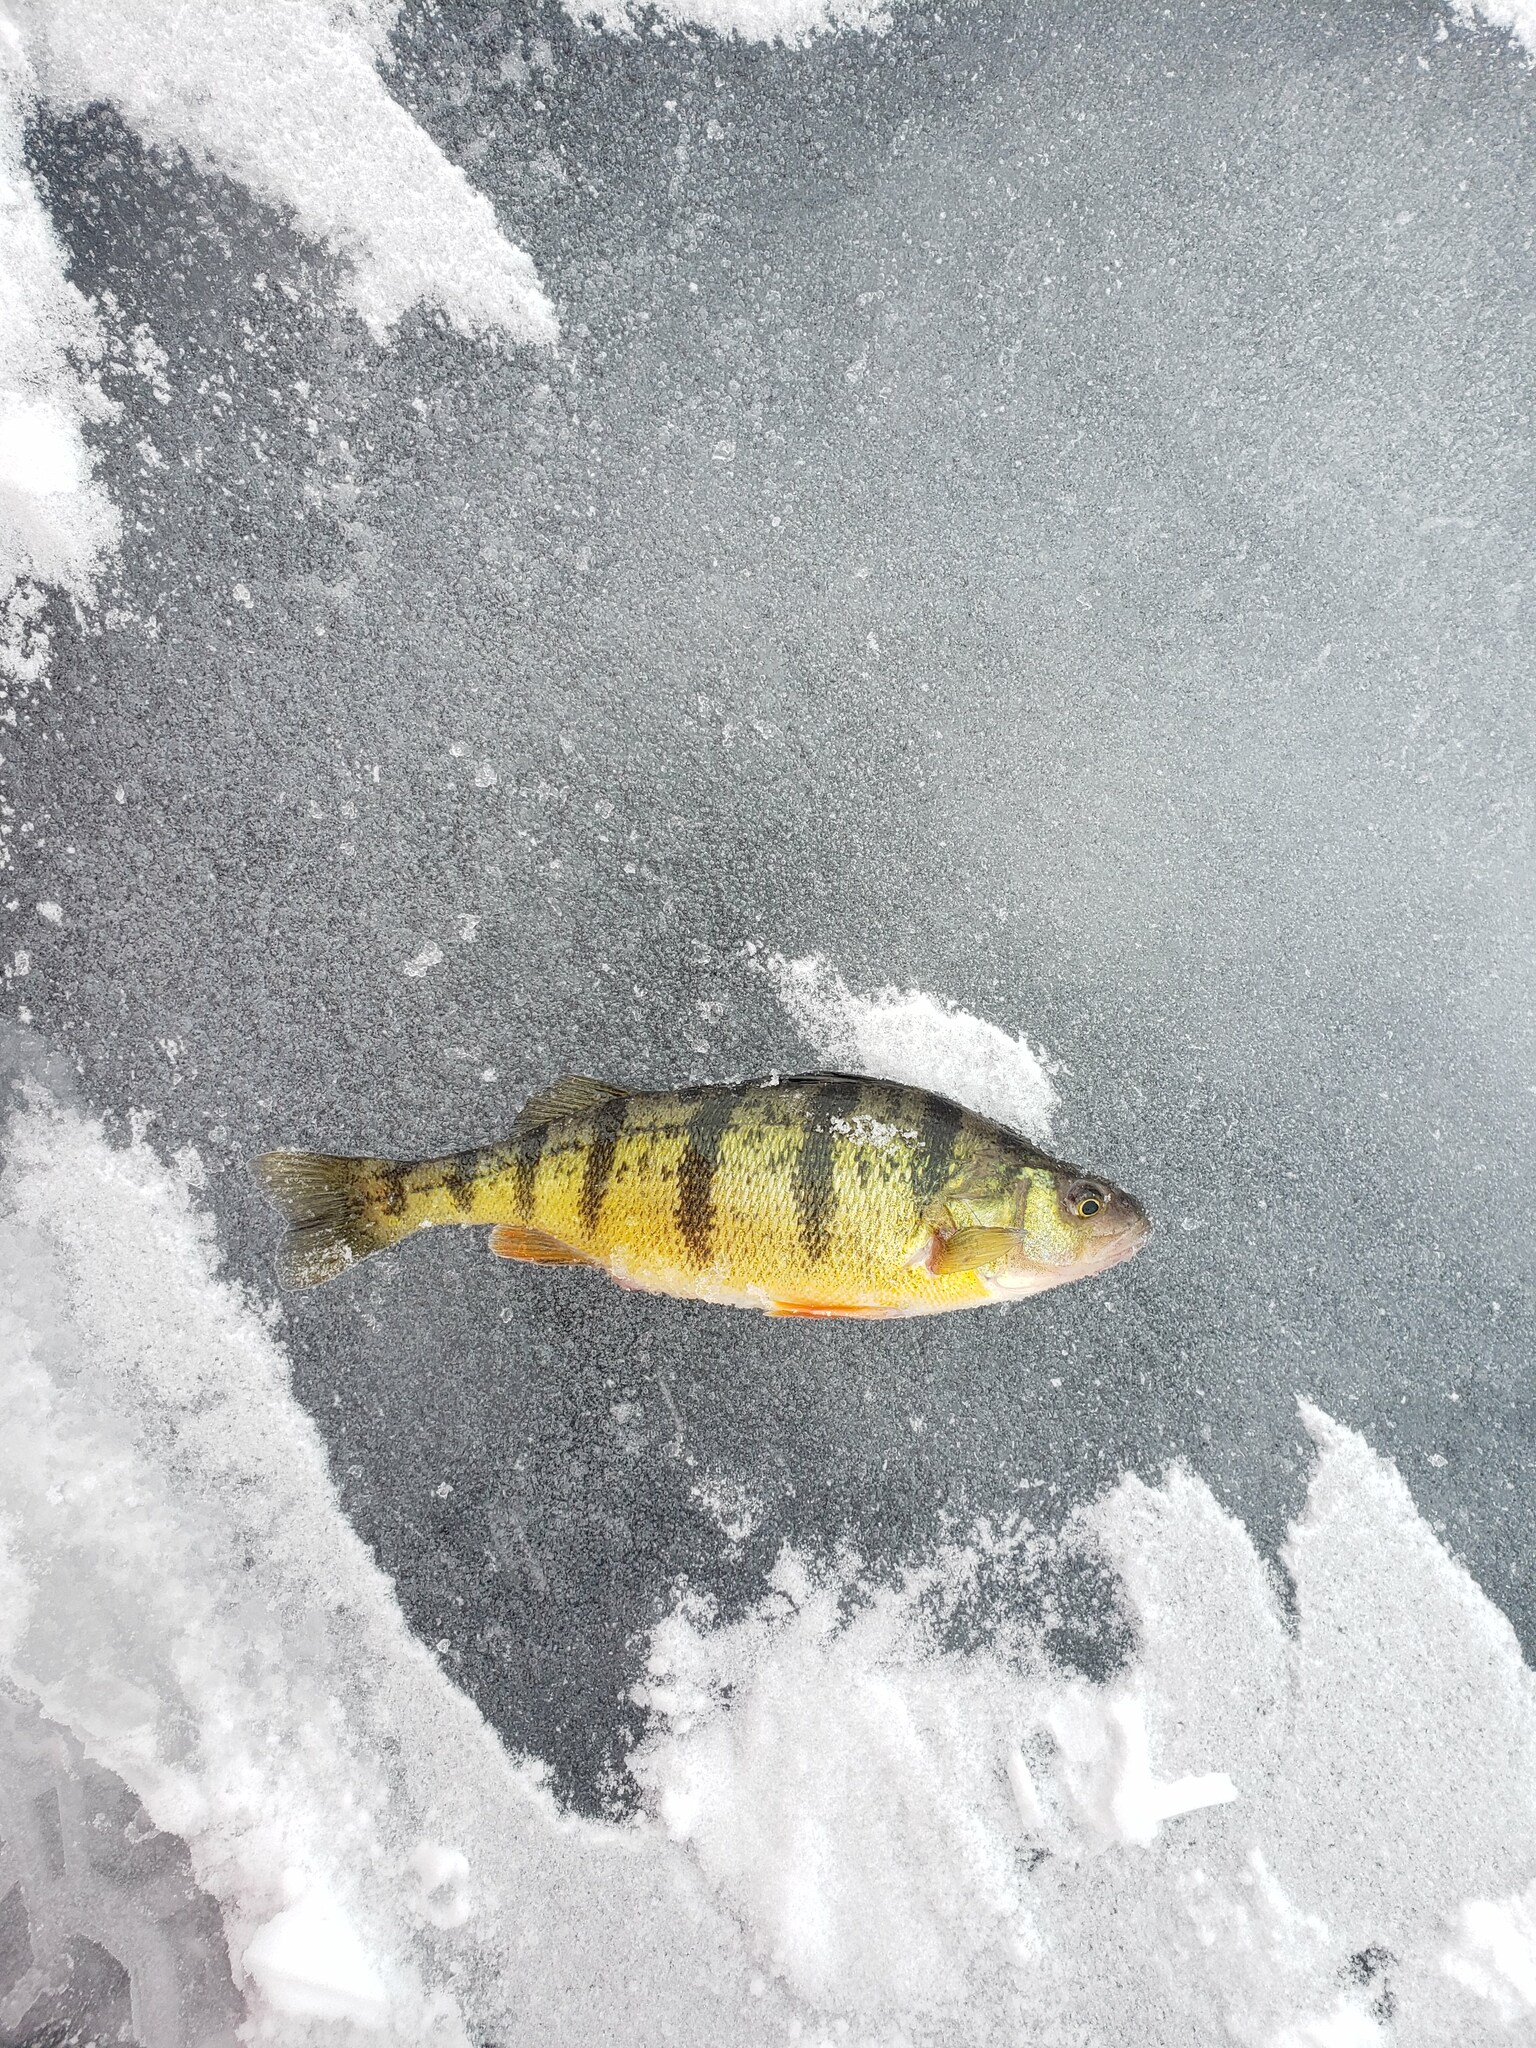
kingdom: Animalia
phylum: Chordata
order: Perciformes
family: Percidae
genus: Perca
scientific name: Perca flavescens
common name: Yellow perch
